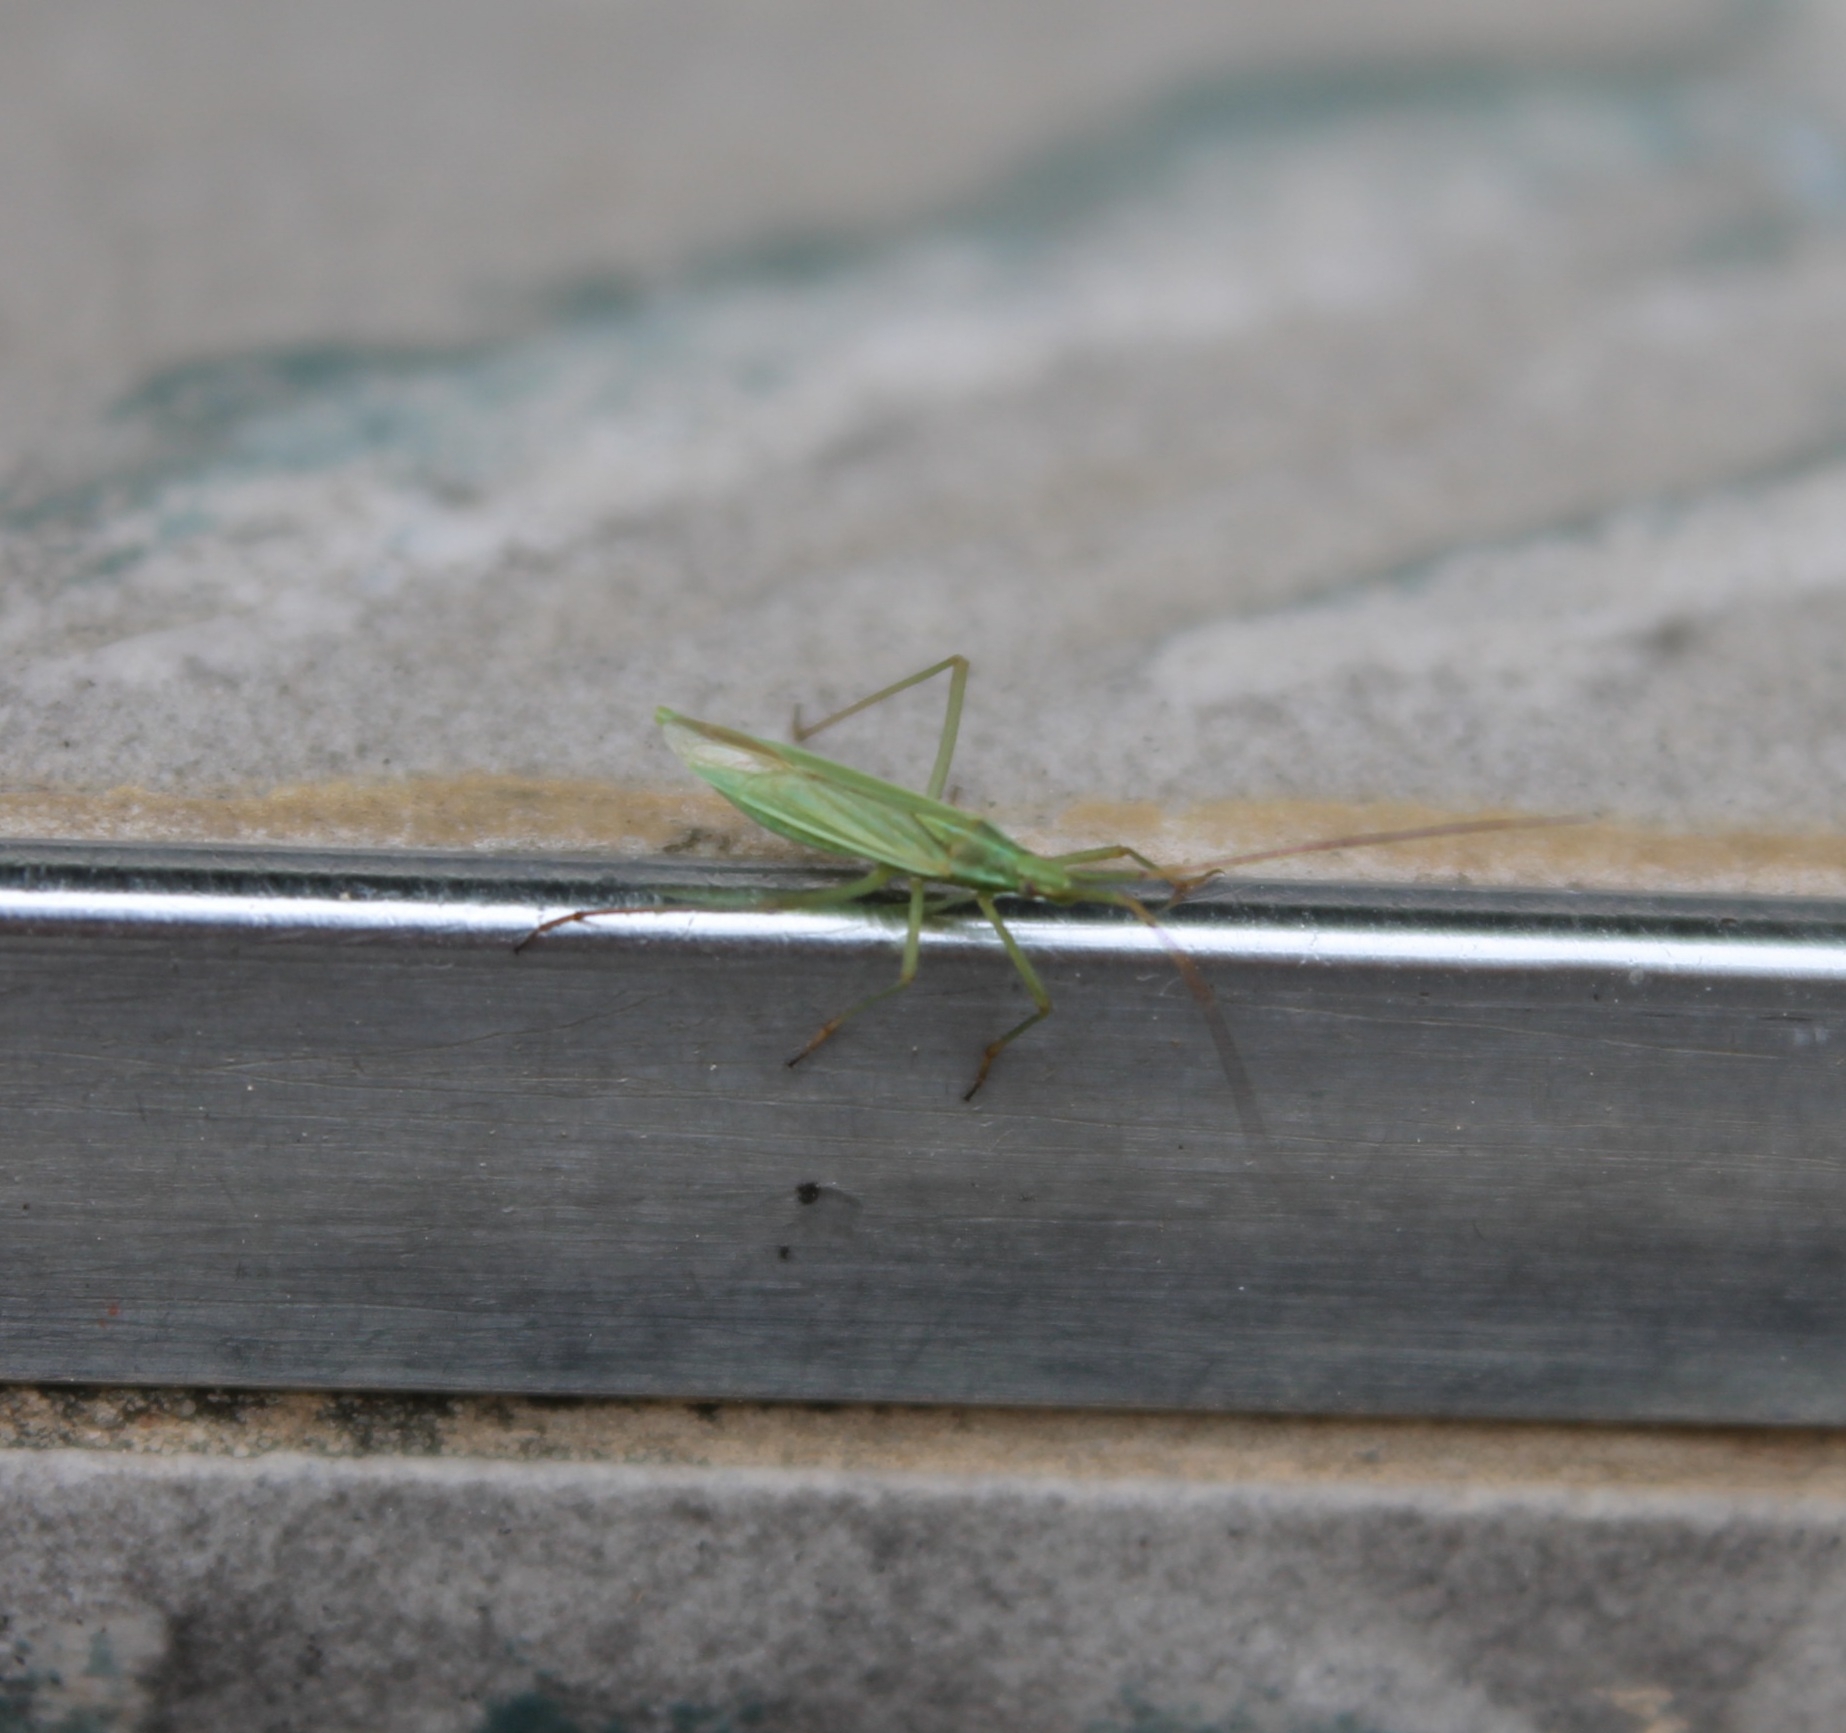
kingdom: Animalia
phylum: Arthropoda
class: Insecta
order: Hemiptera
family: Miridae
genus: Megaloceroea
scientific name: Megaloceroea recticornis
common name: Plant bug
